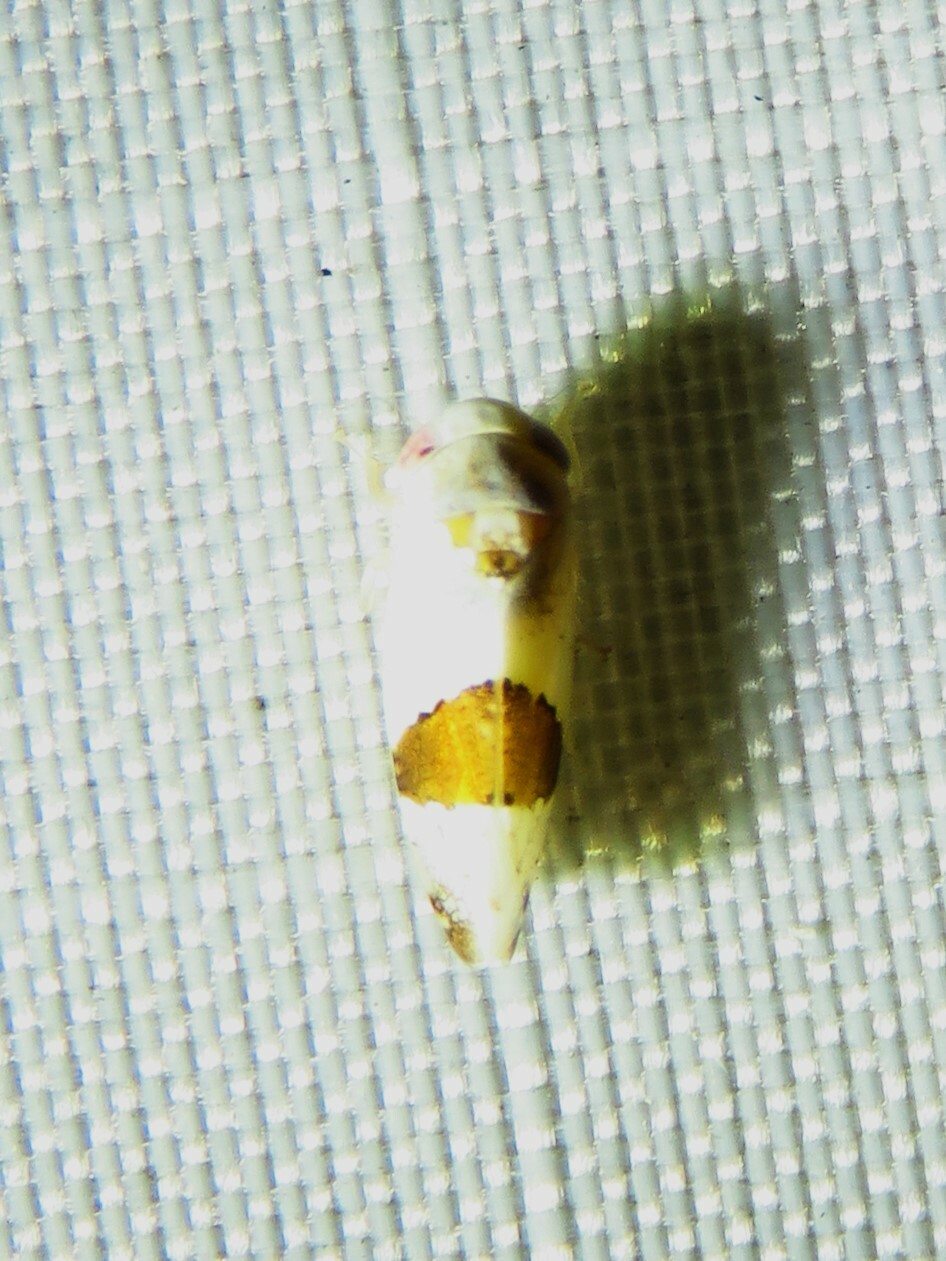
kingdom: Animalia
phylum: Arthropoda
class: Insecta
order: Hemiptera
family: Cicadellidae
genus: Norvellina
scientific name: Norvellina seminuda
